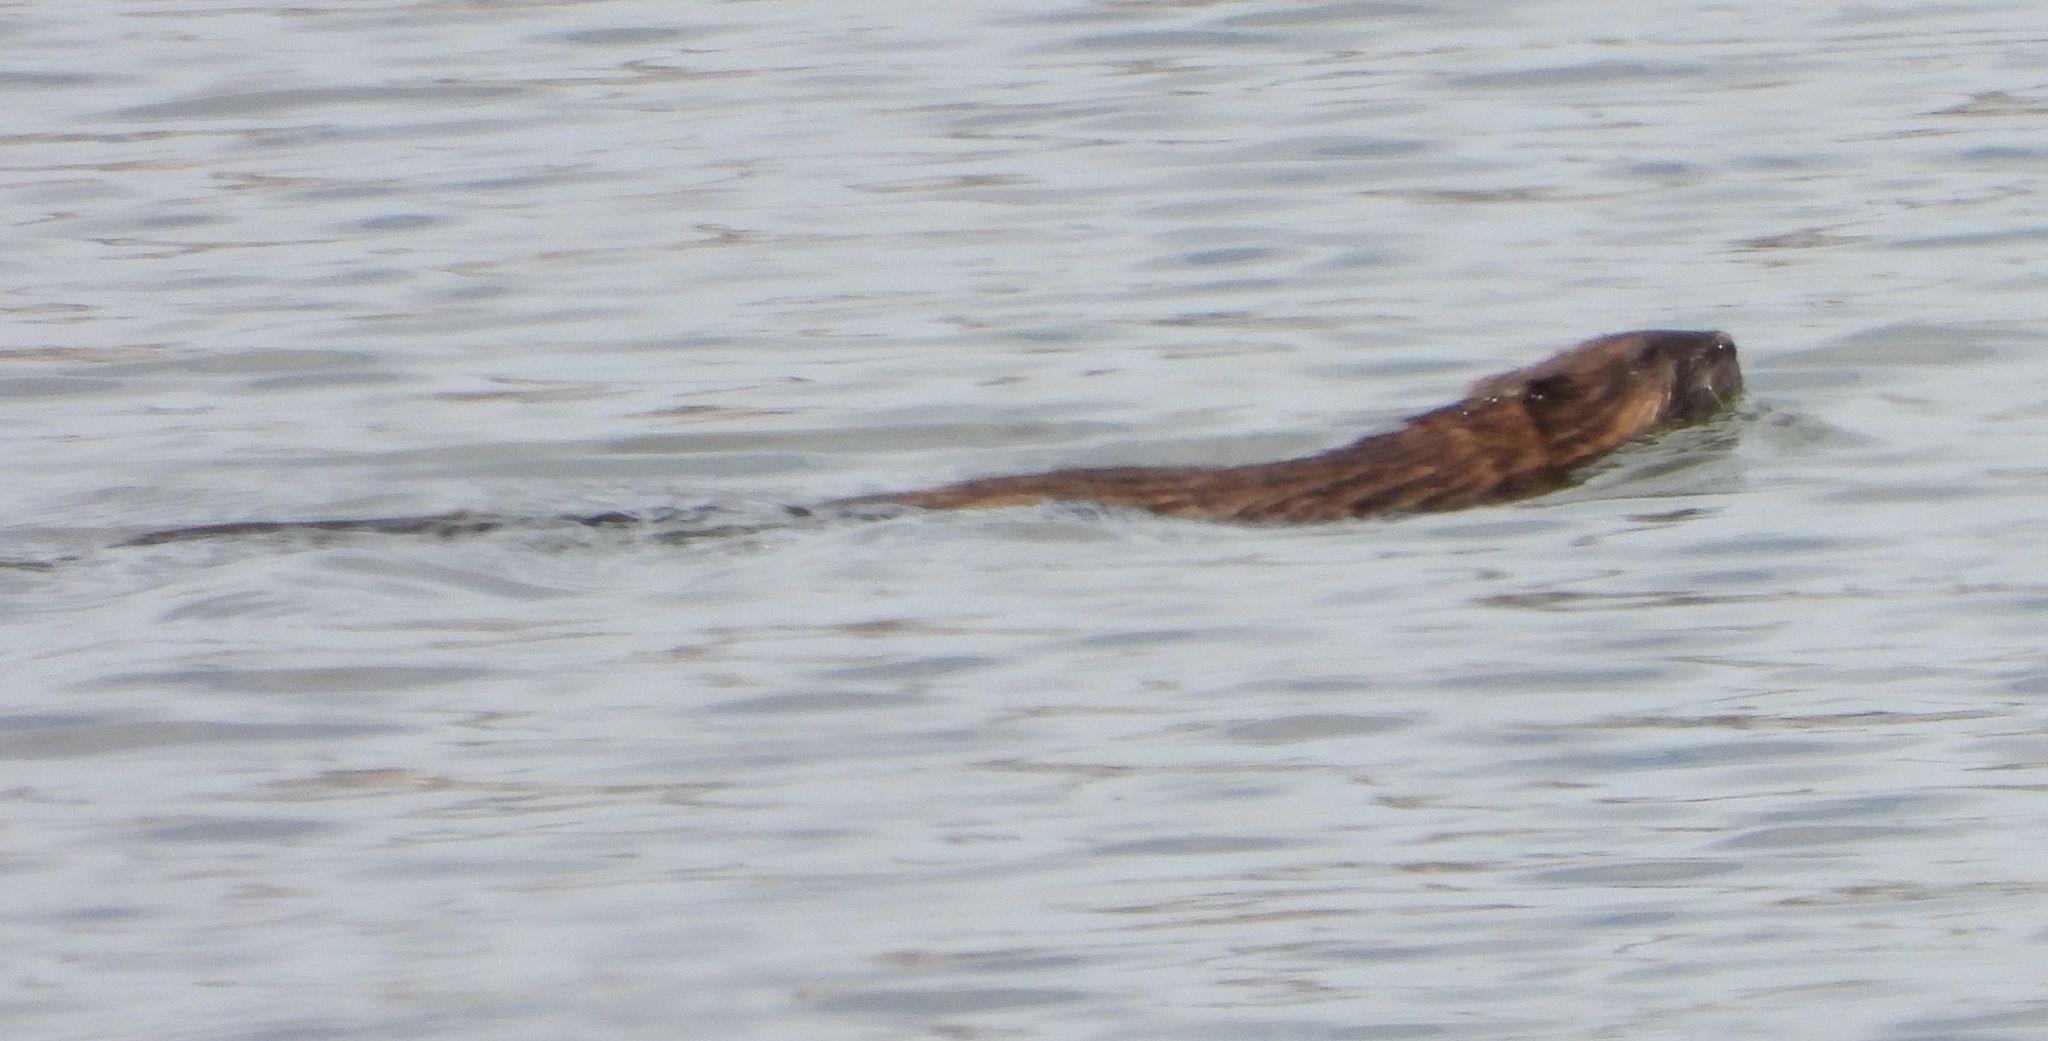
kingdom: Animalia
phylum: Chordata
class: Mammalia
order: Rodentia
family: Cricetidae
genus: Ondatra
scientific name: Ondatra zibethicus
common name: Muskrat
